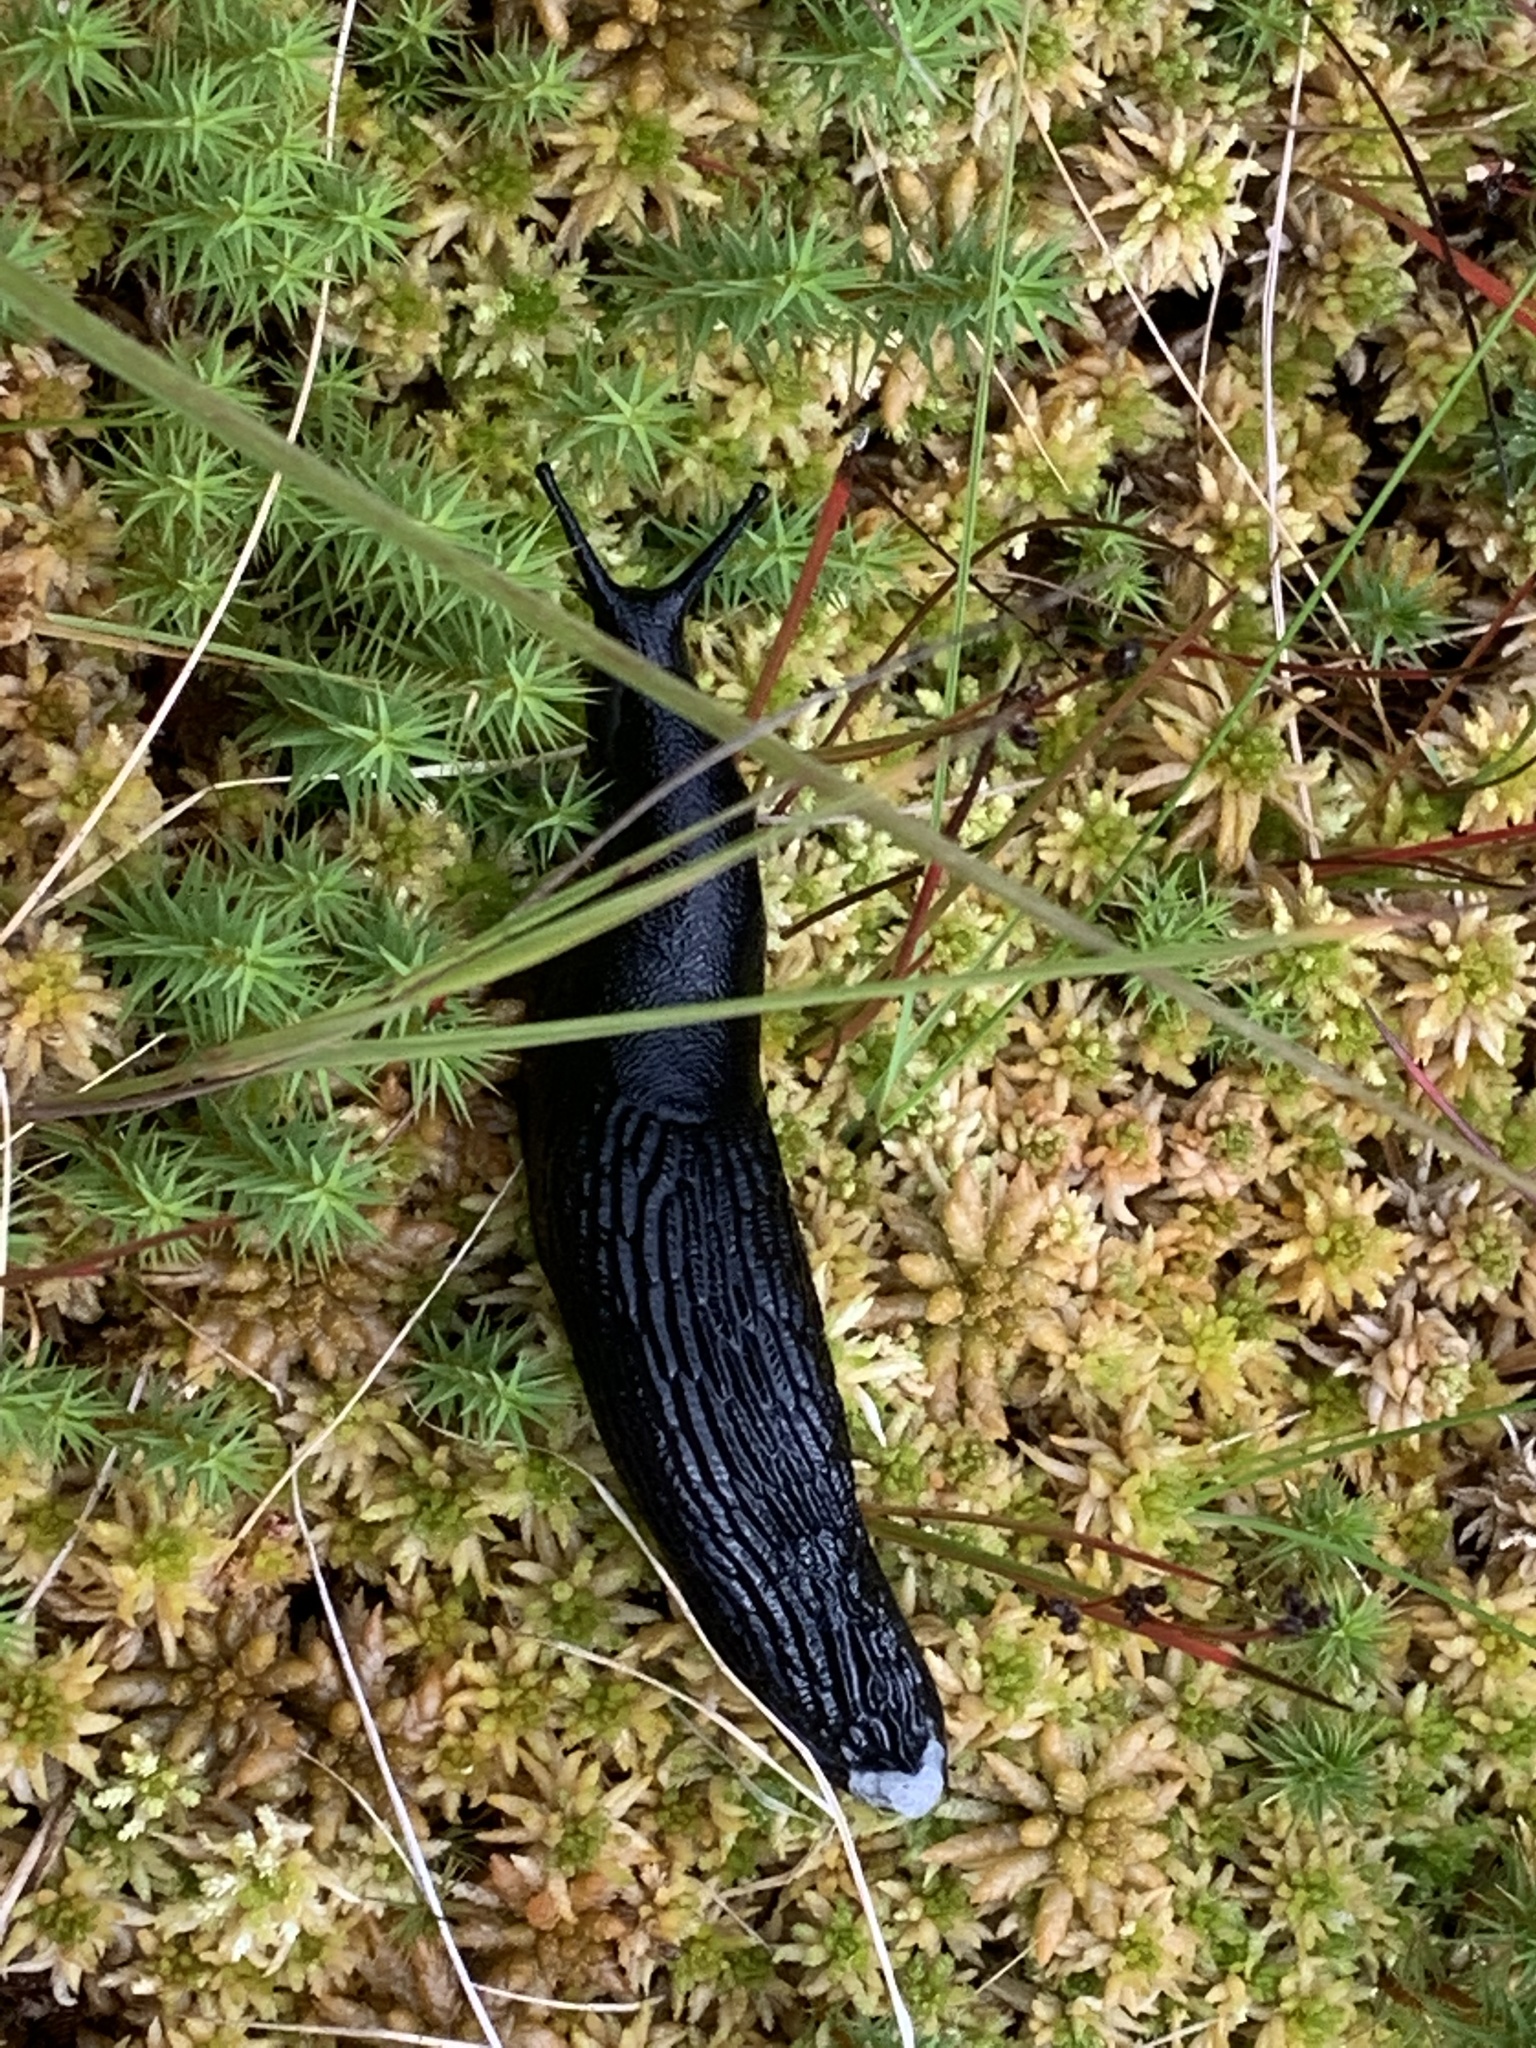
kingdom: Animalia
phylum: Mollusca
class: Gastropoda
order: Stylommatophora
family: Arionidae
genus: Arion
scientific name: Arion ater
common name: Black arion
